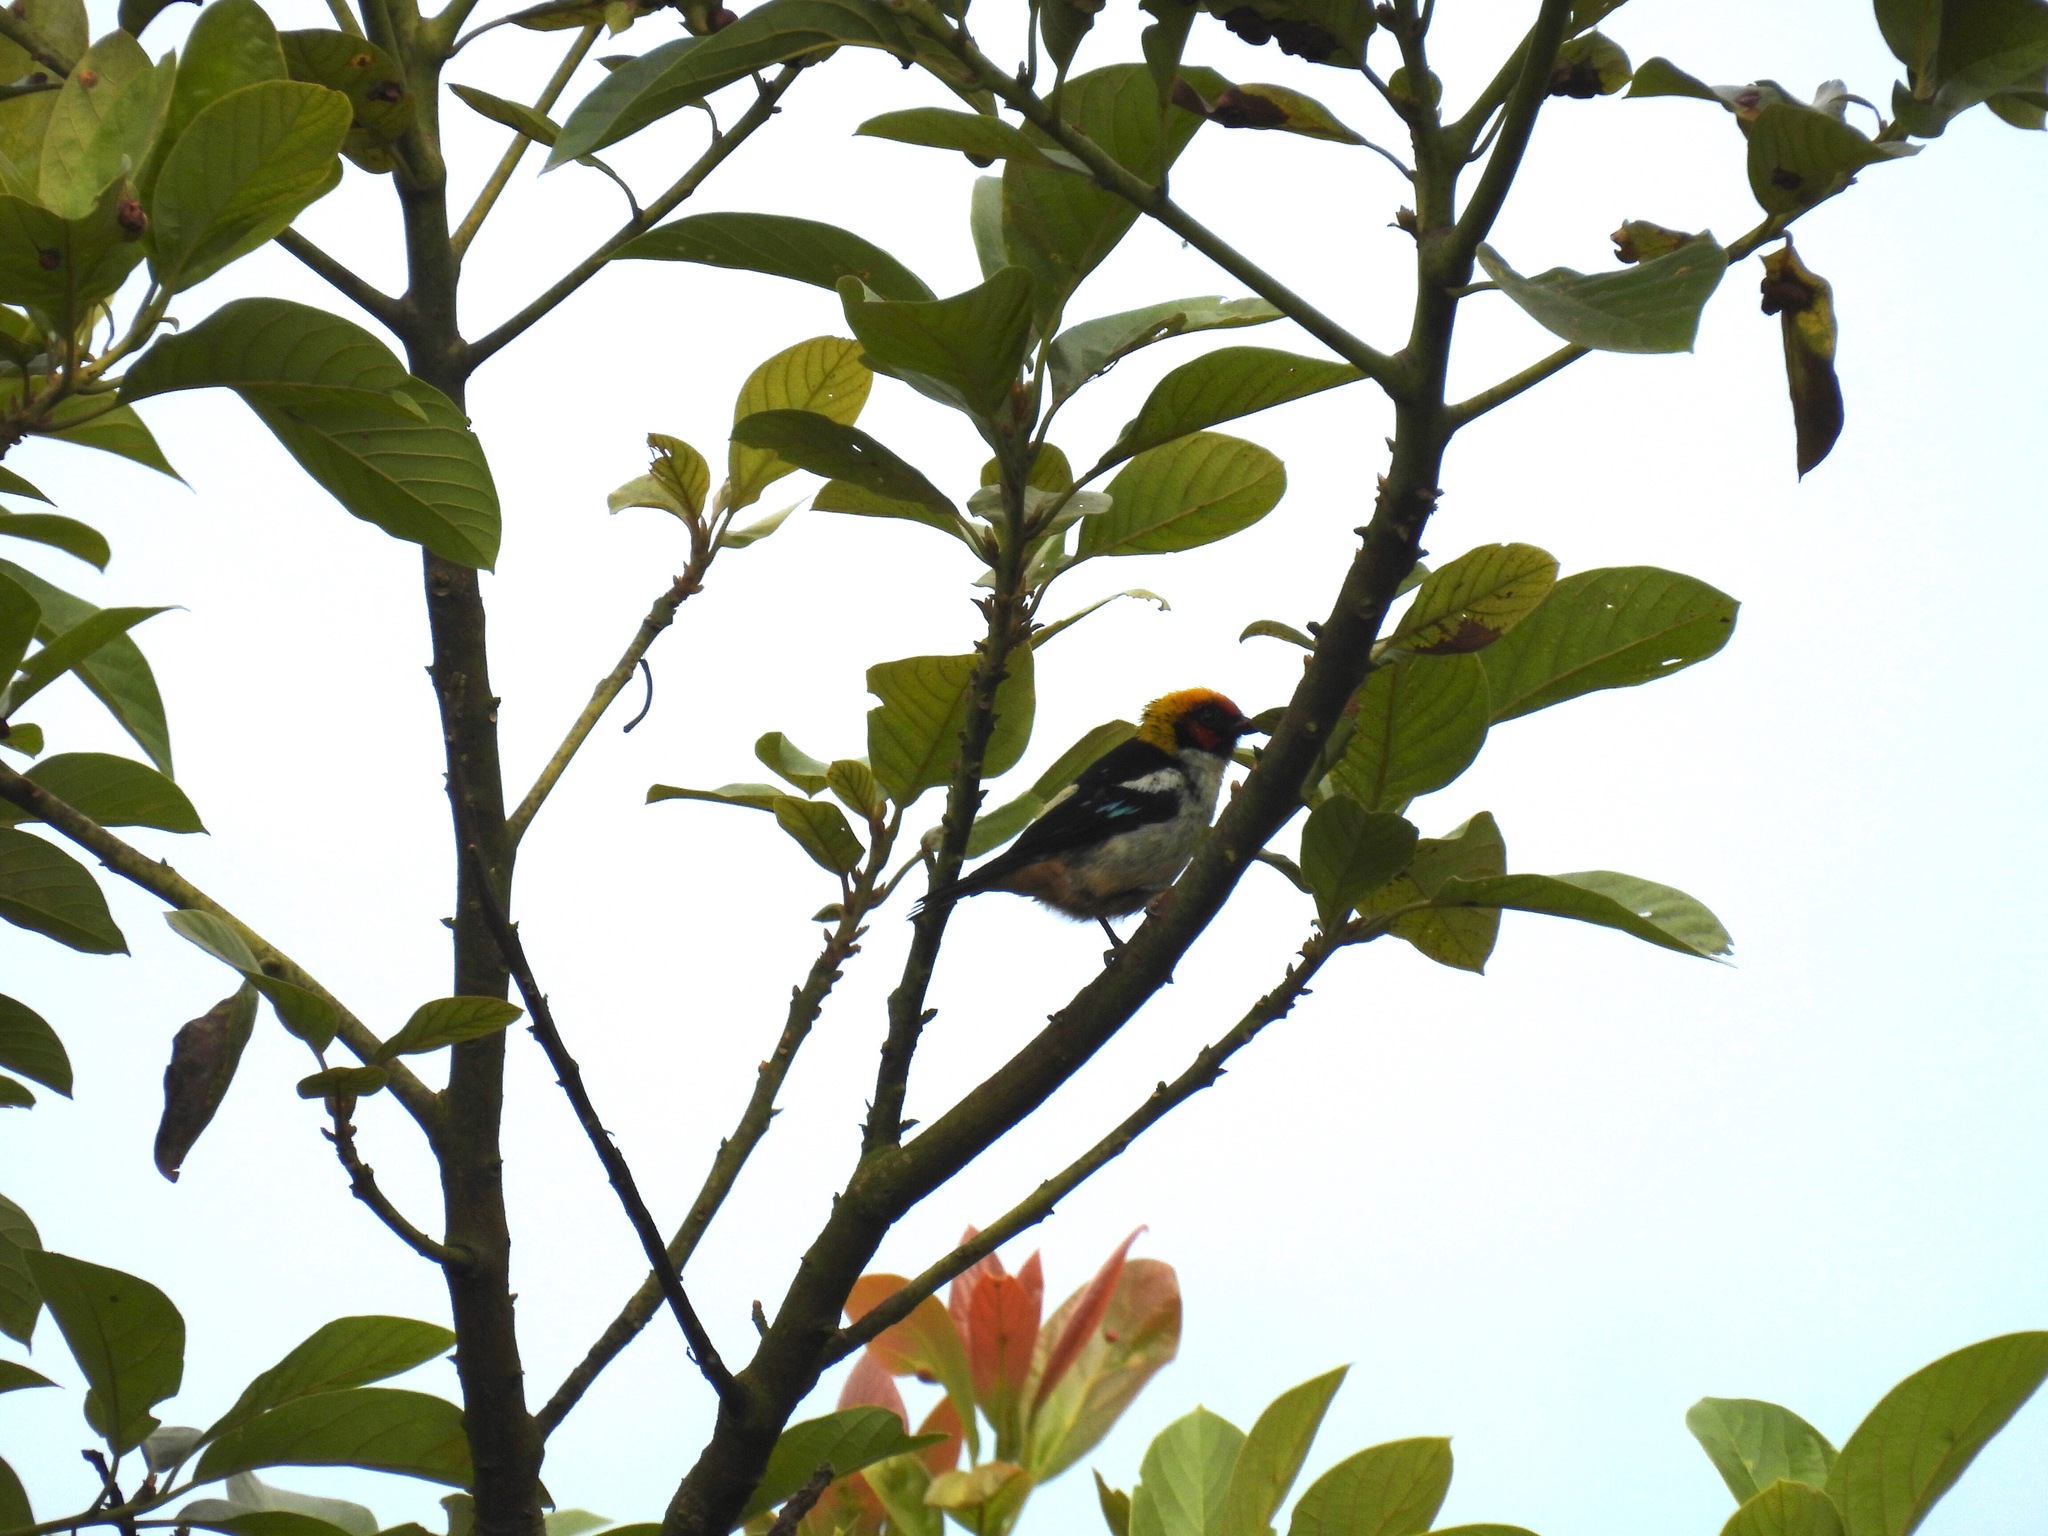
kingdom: Animalia
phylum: Chordata
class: Aves
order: Passeriformes
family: Thraupidae
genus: Tangara
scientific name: Tangara parzudakii
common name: Flame-faced tanager
